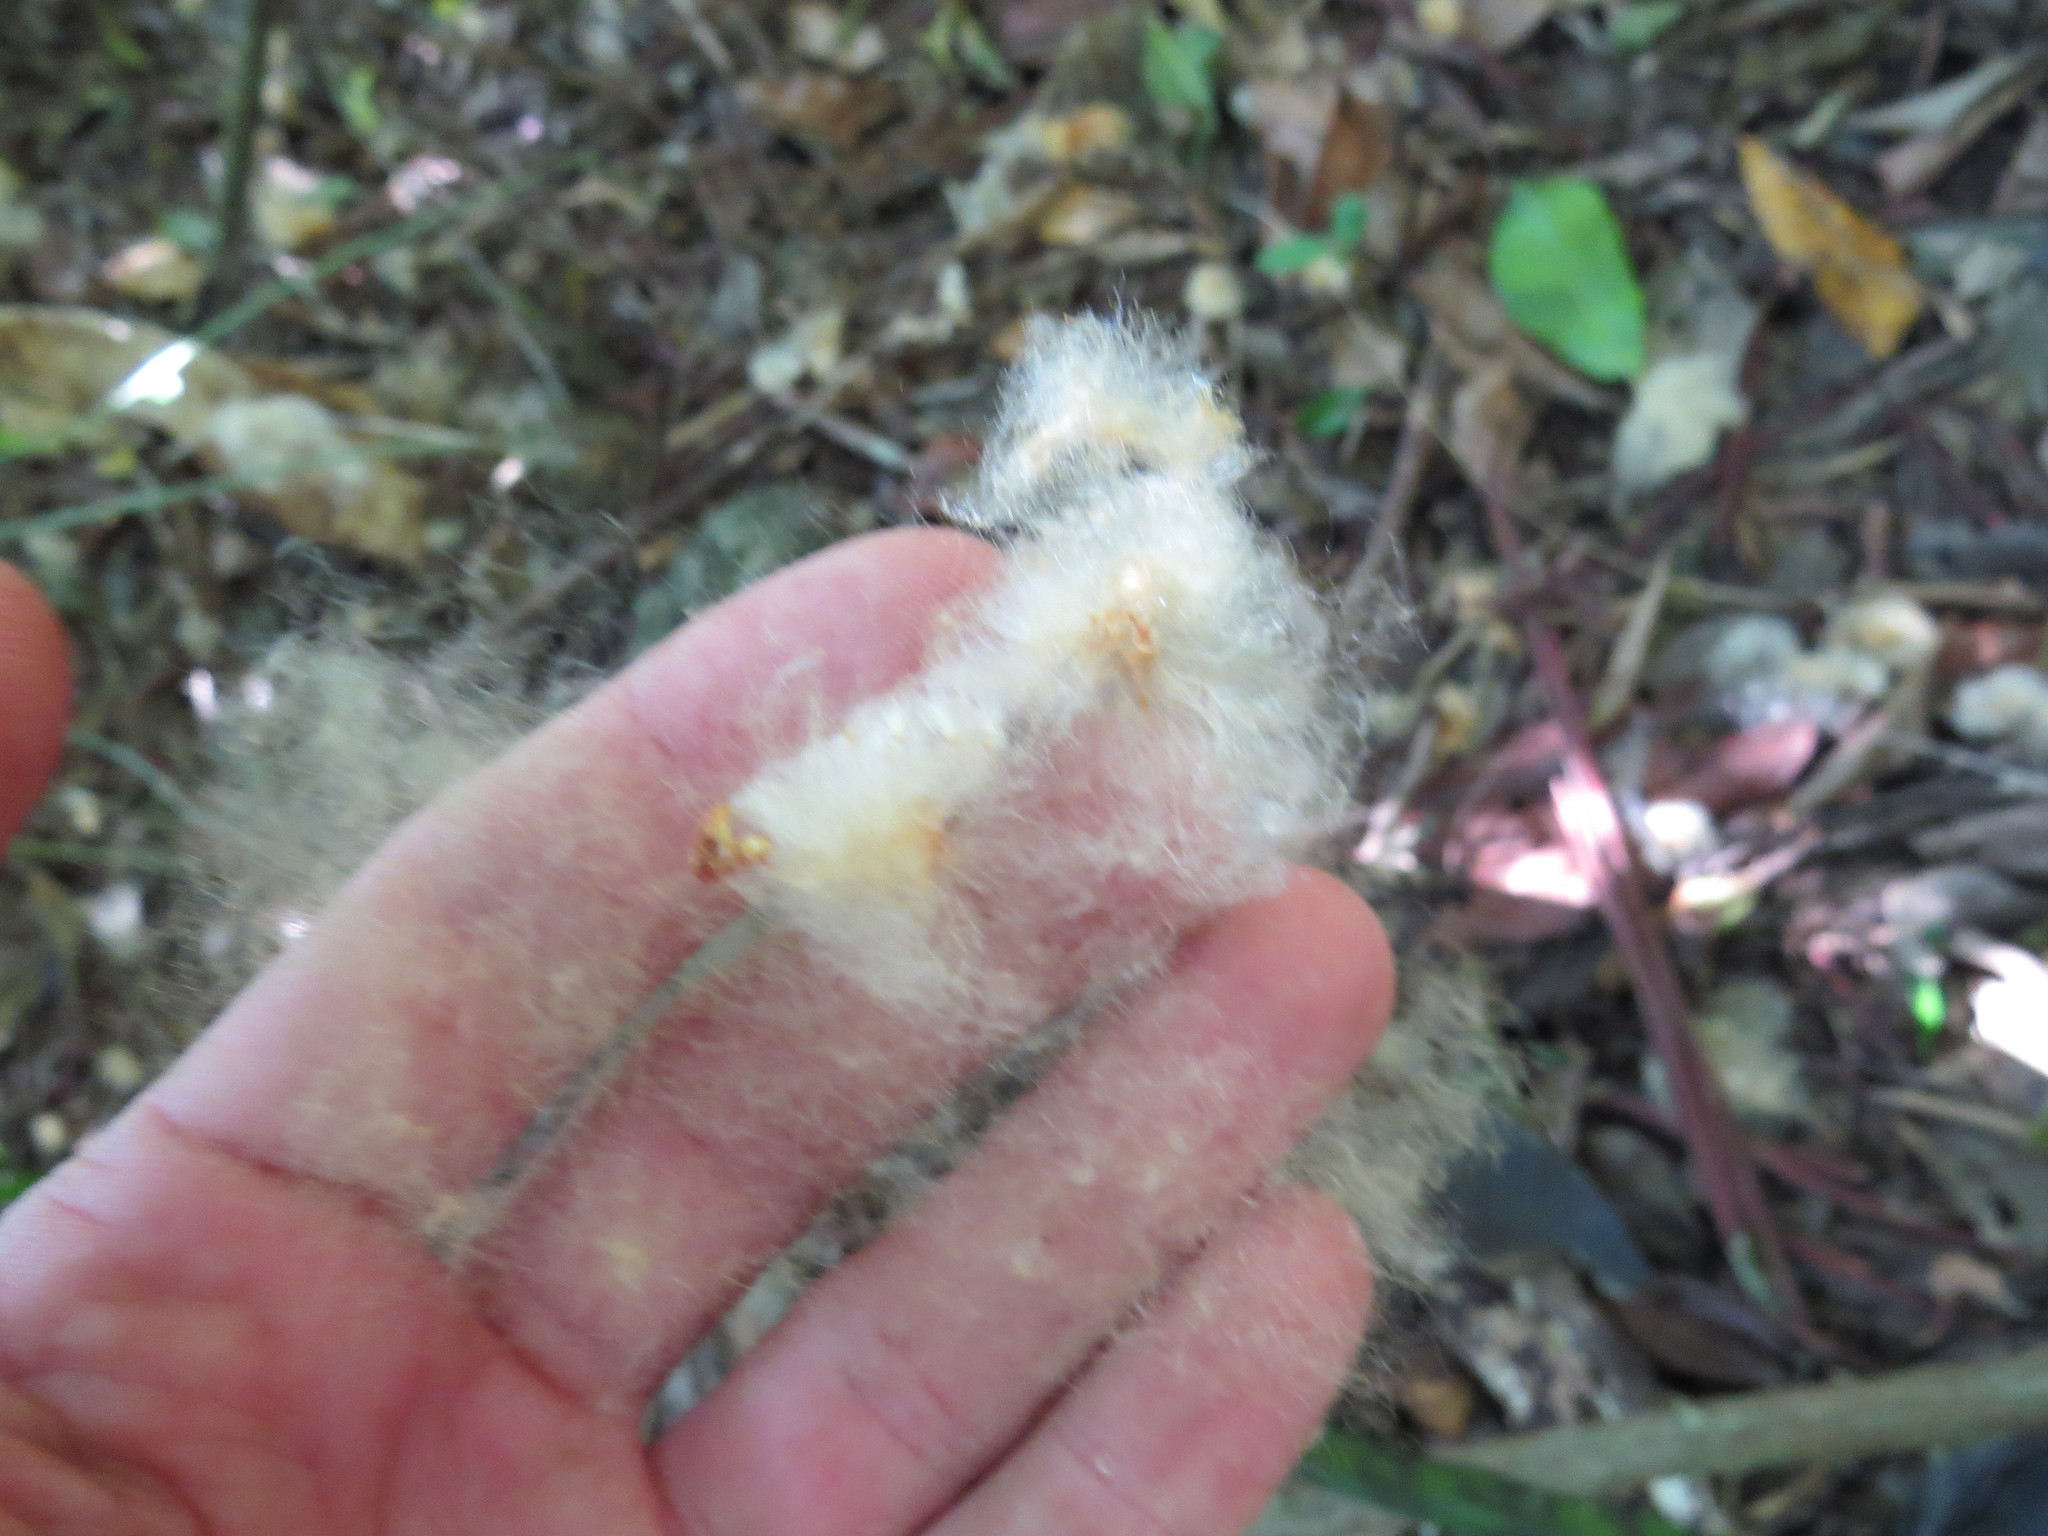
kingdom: Plantae
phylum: Tracheophyta
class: Magnoliopsida
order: Malvales
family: Malvaceae
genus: Ceiba
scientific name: Ceiba erianthos
